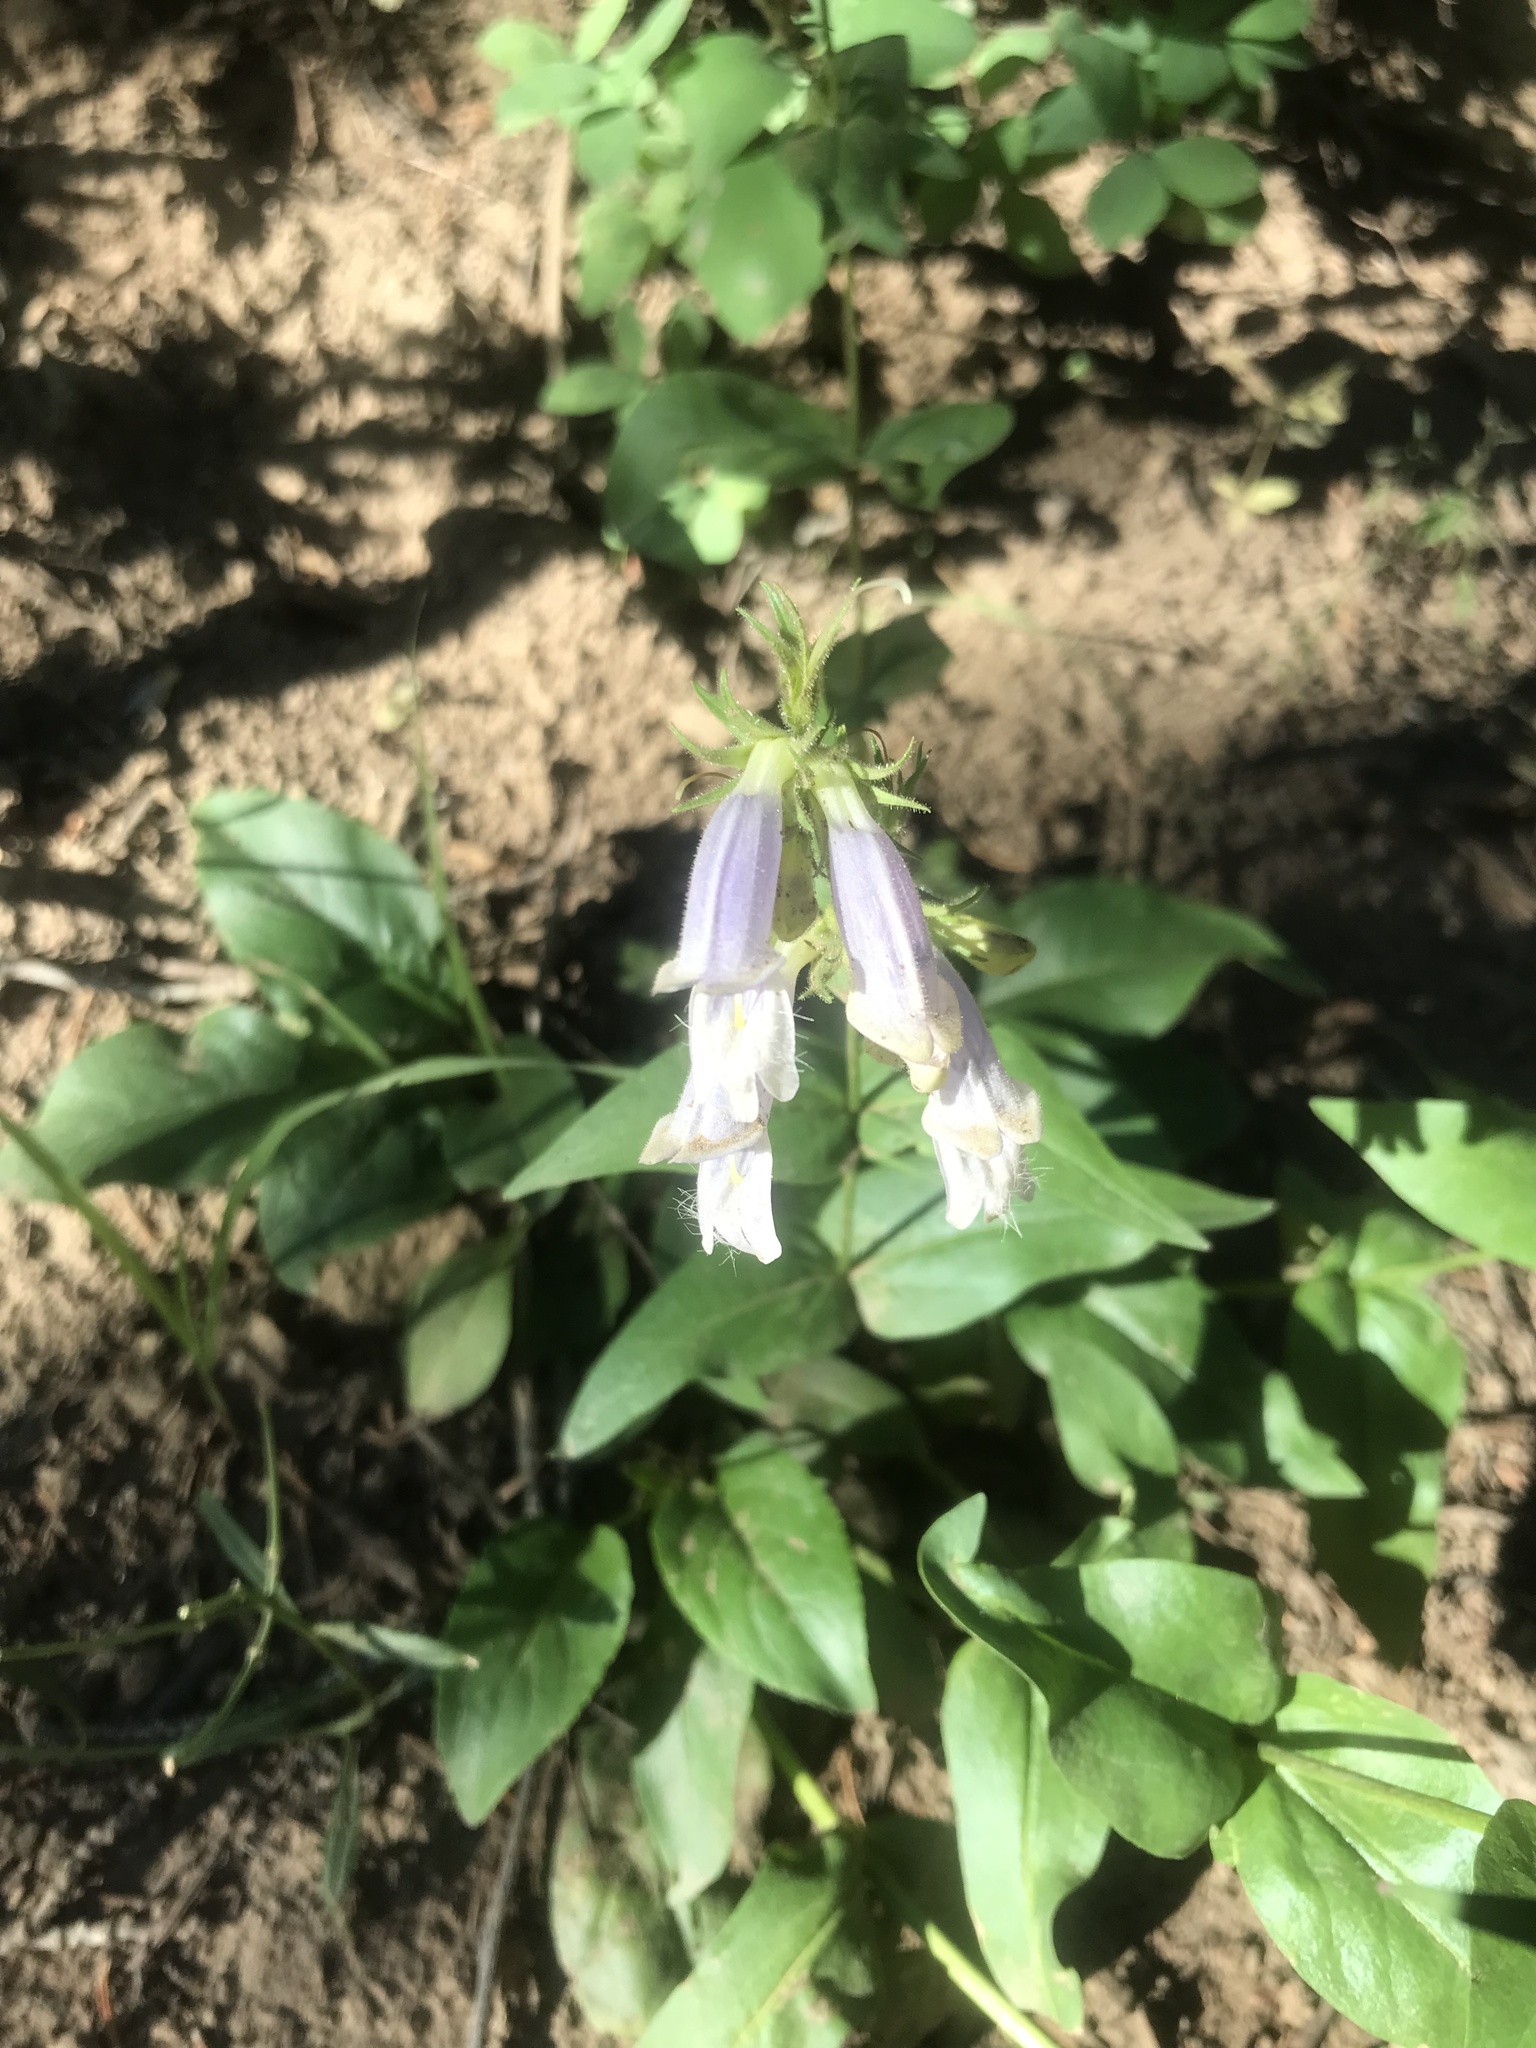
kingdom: Plantae
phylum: Tracheophyta
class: Magnoliopsida
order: Lamiales
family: Plantaginaceae
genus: Penstemon
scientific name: Penstemon whippleanus
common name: Whipple's penstemon
